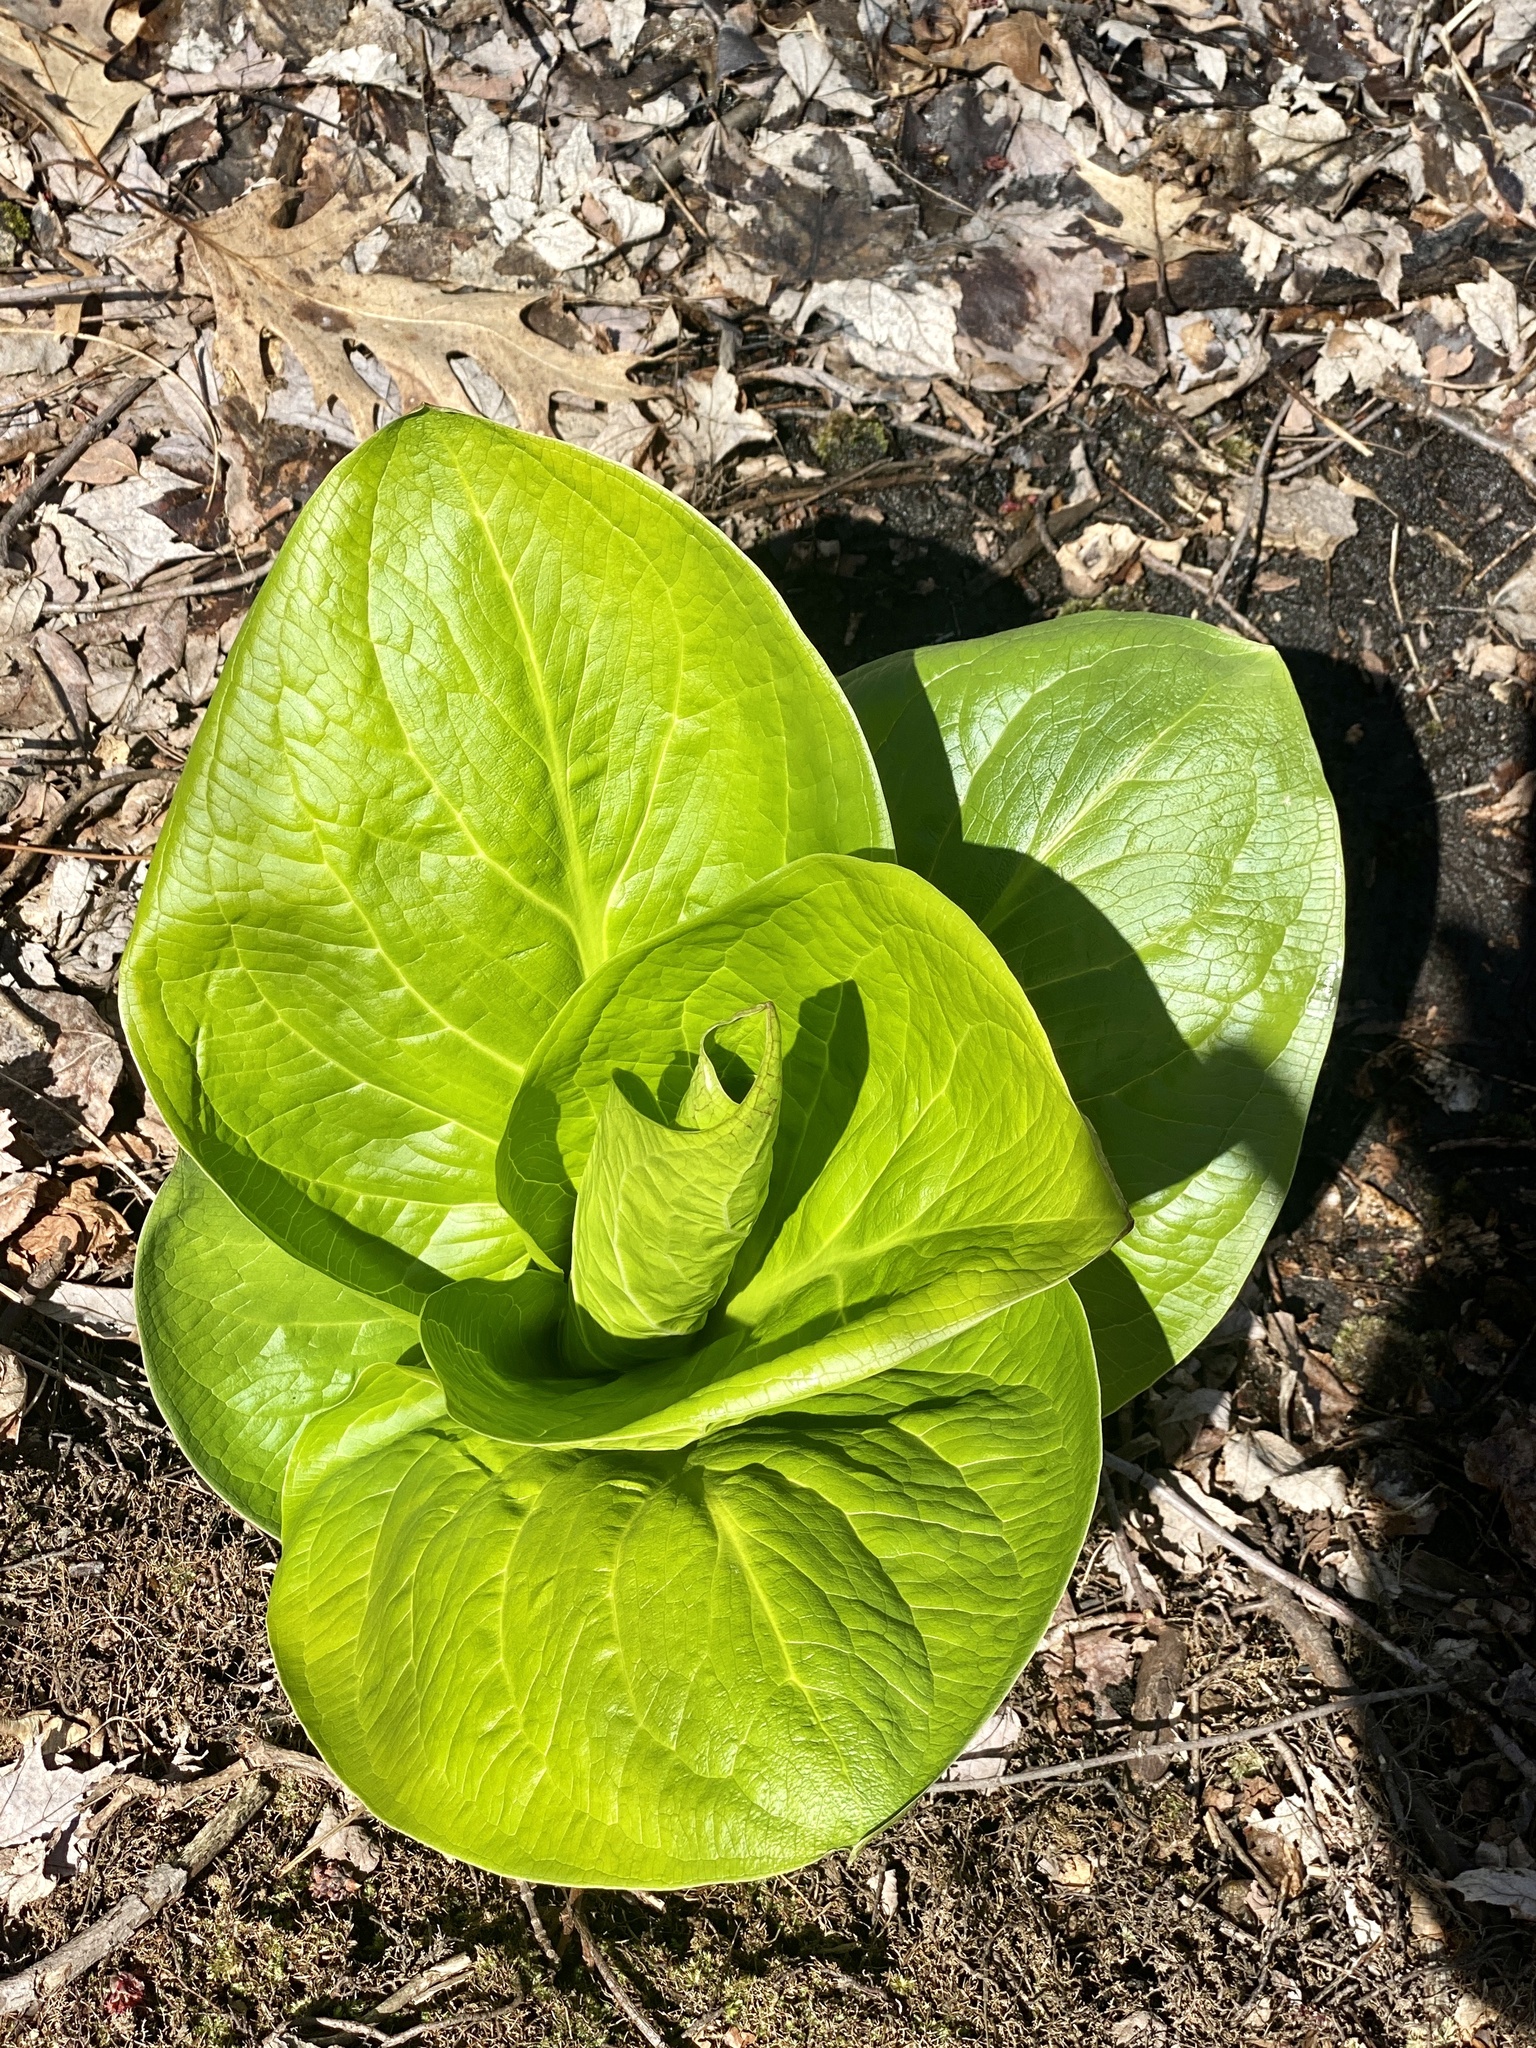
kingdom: Plantae
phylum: Tracheophyta
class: Liliopsida
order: Alismatales
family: Araceae
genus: Symplocarpus
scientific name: Symplocarpus foetidus
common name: Eastern skunk cabbage
